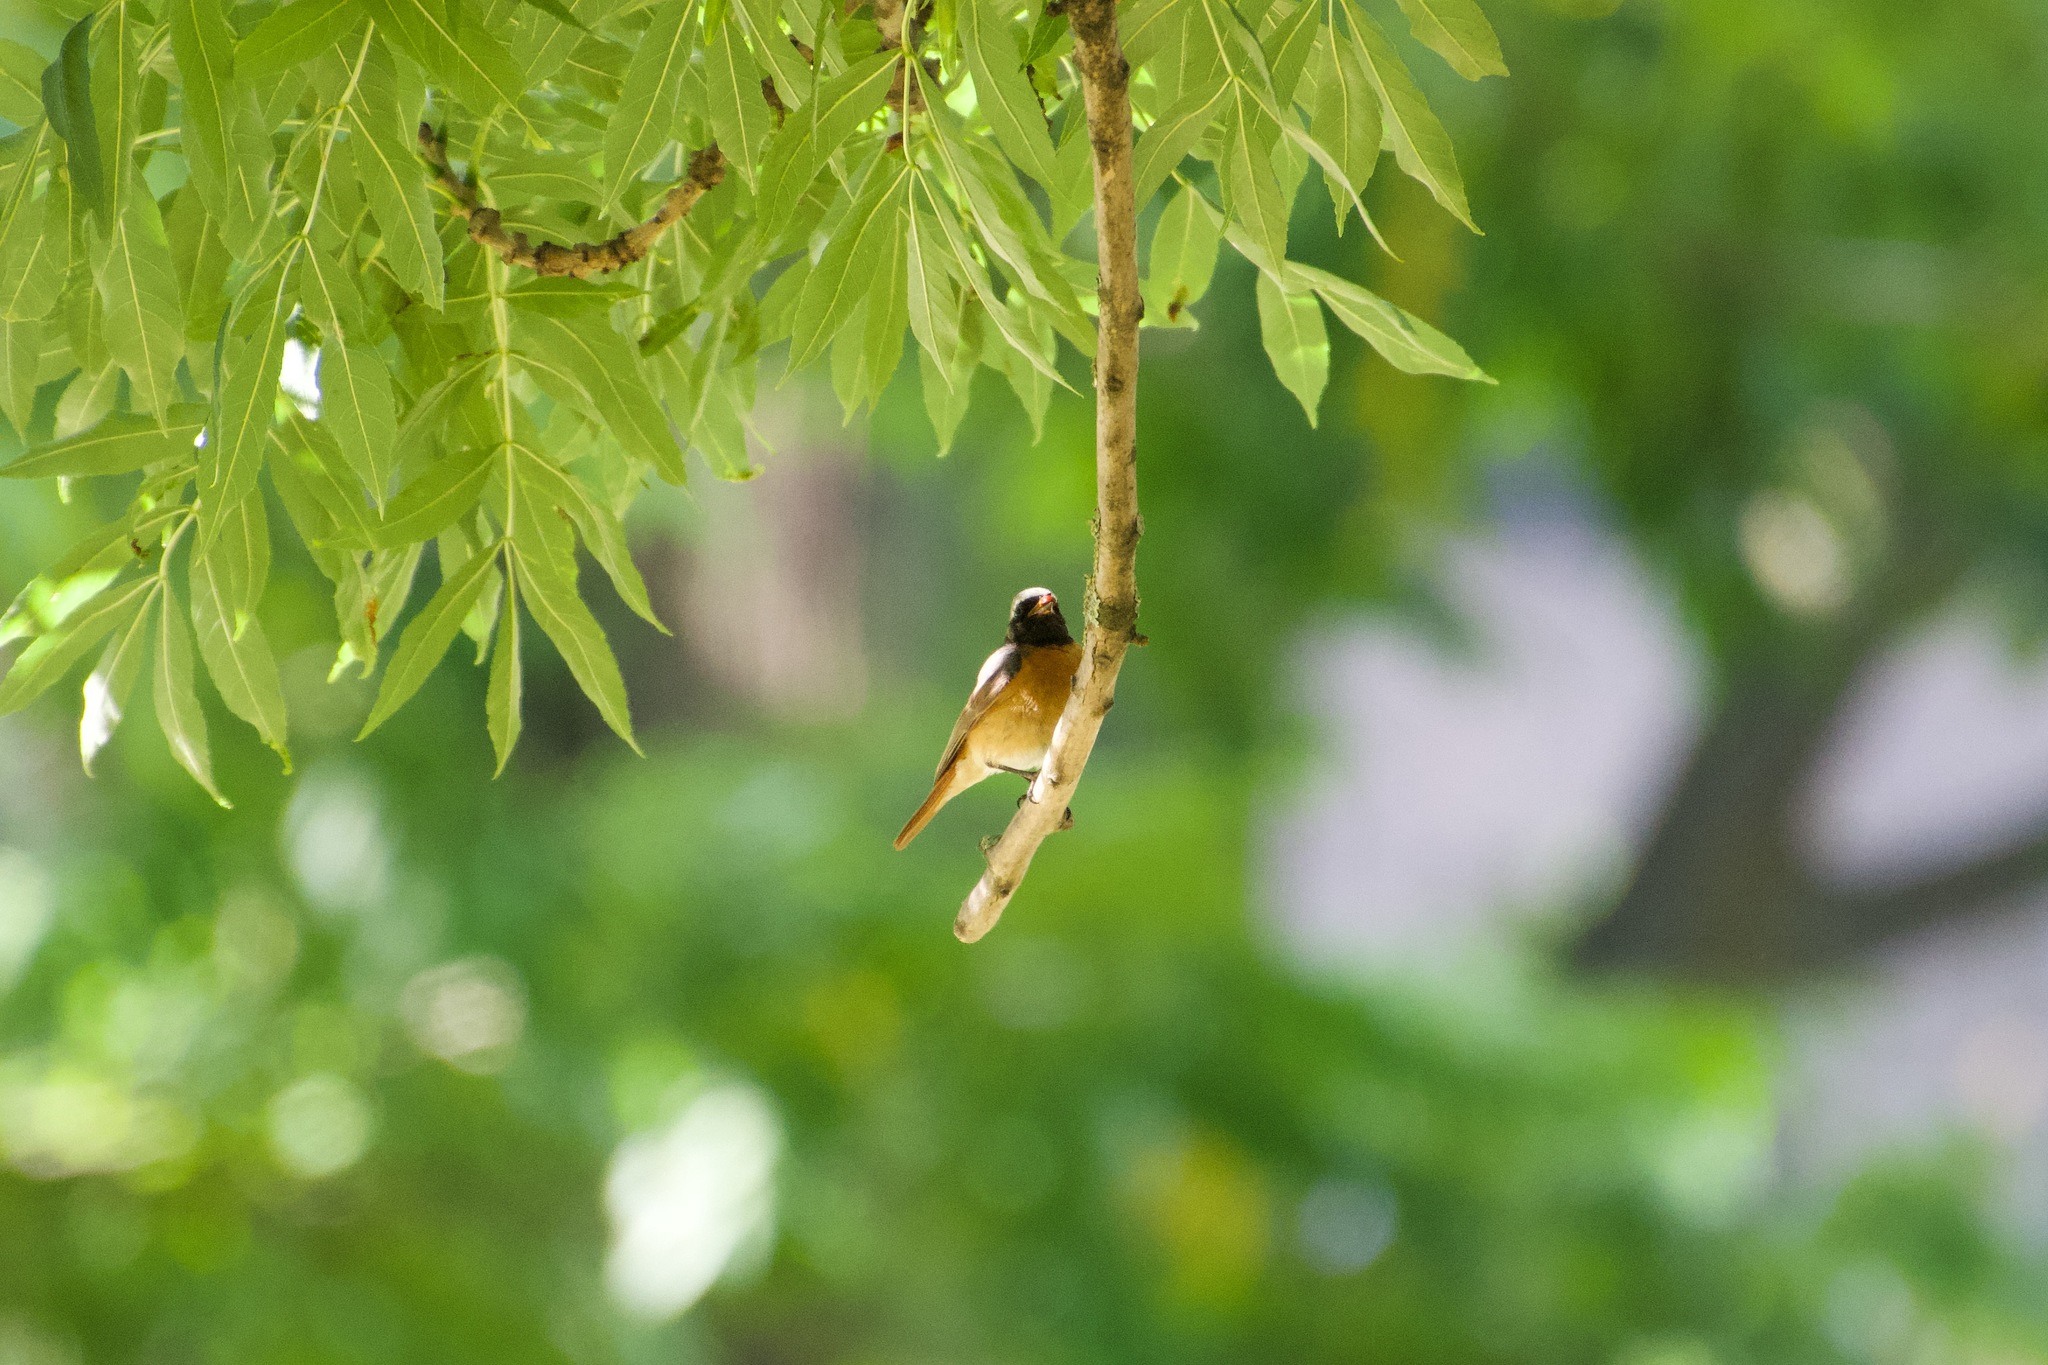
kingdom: Animalia
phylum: Chordata
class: Aves
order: Passeriformes
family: Muscicapidae
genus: Phoenicurus
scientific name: Phoenicurus phoenicurus
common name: Common redstart
